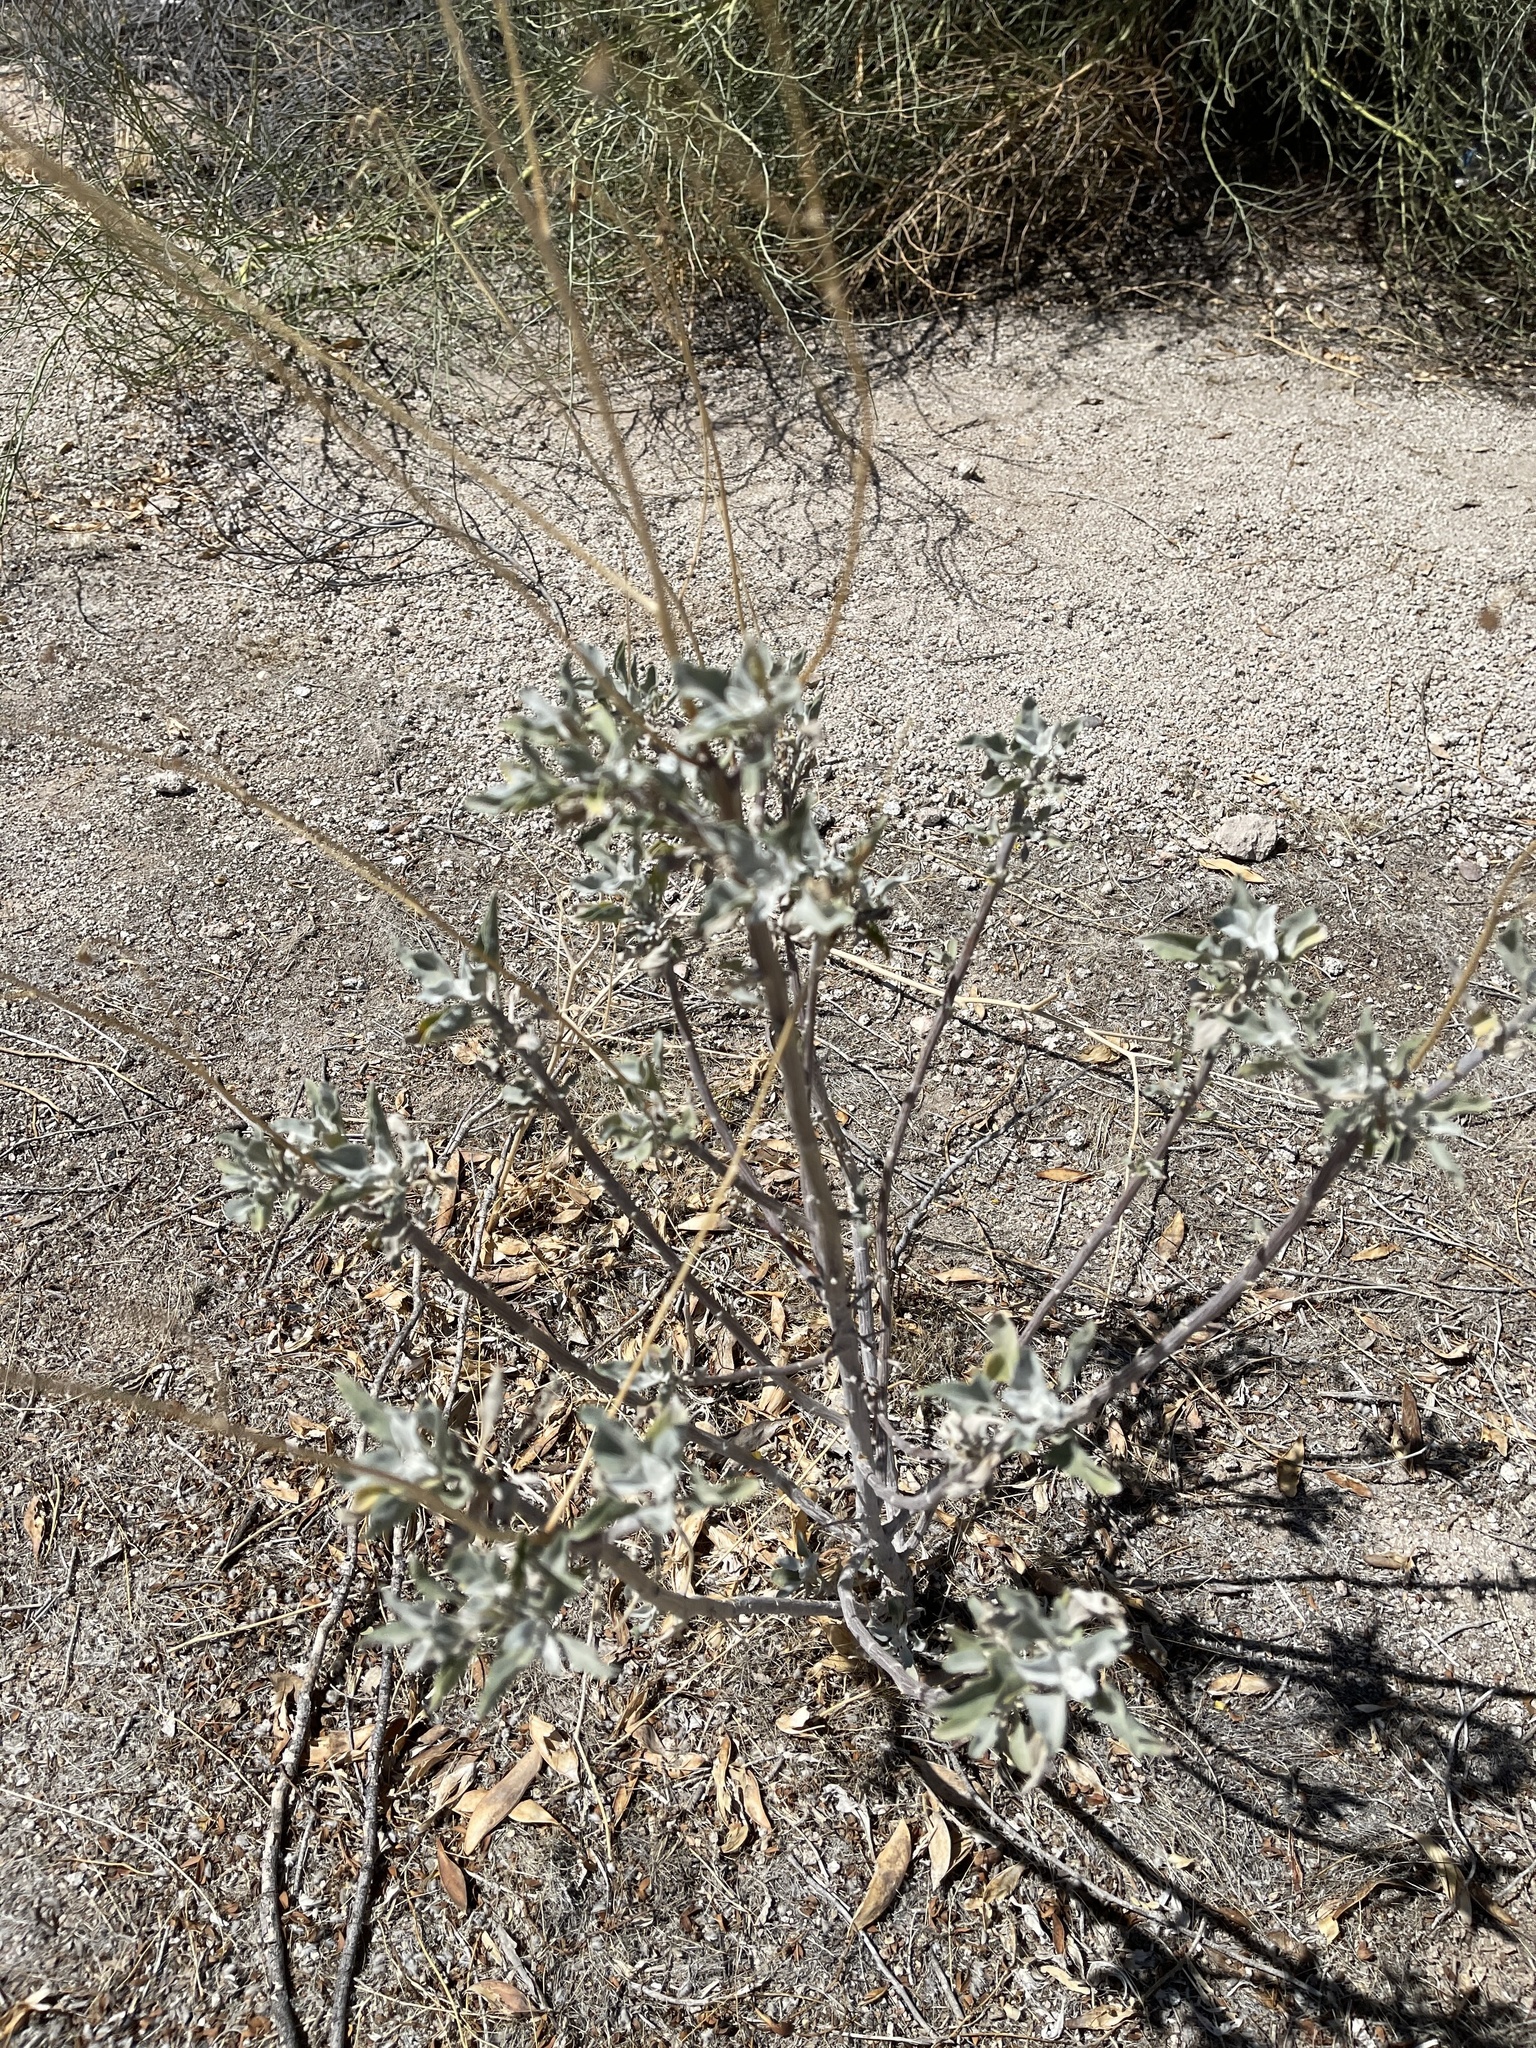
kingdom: Plantae
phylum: Tracheophyta
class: Magnoliopsida
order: Asterales
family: Asteraceae
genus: Encelia
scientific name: Encelia farinosa
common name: Brittlebush
